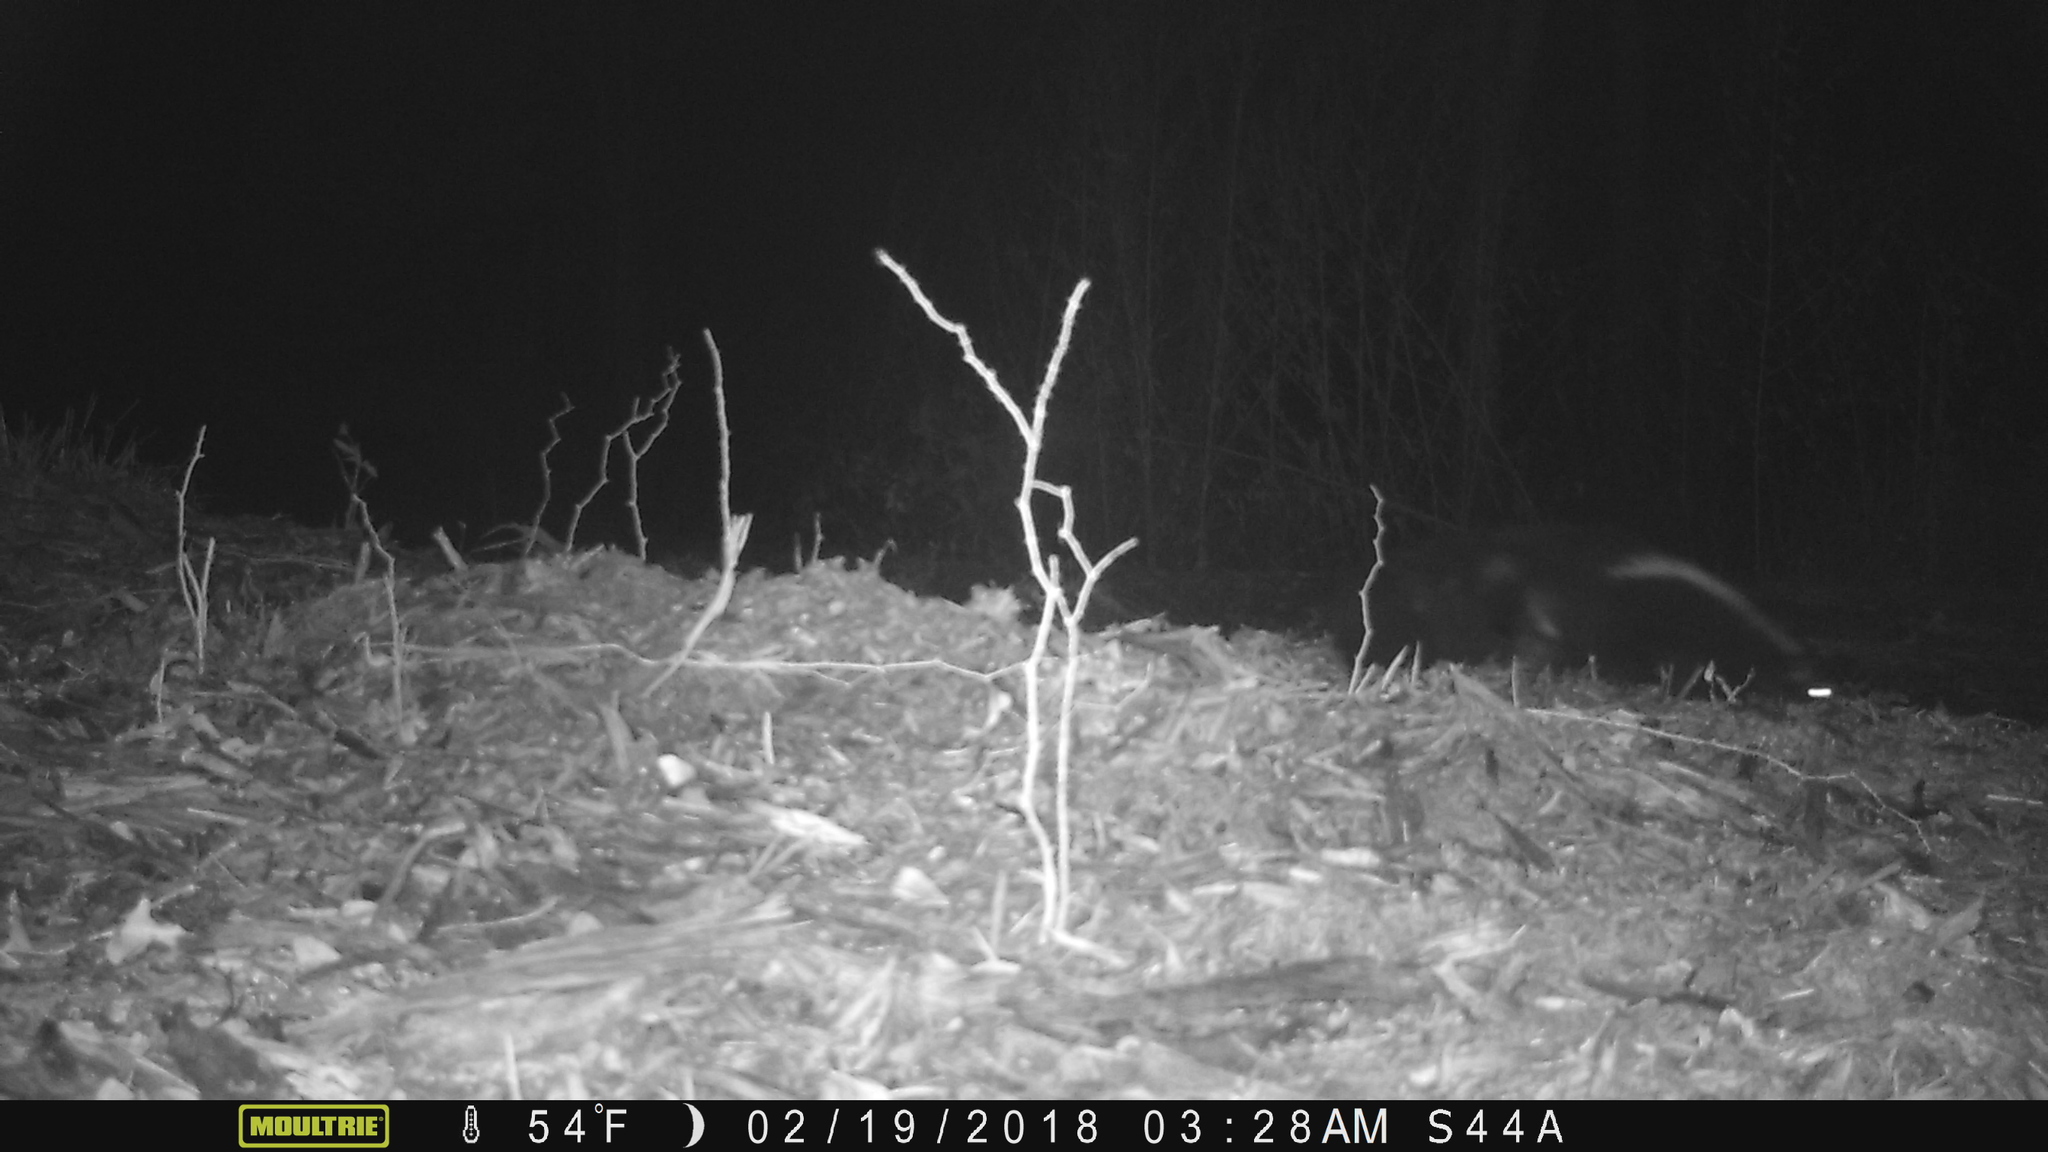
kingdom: Animalia
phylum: Chordata
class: Mammalia
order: Carnivora
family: Mephitidae
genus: Mephitis
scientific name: Mephitis mephitis
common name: Striped skunk
